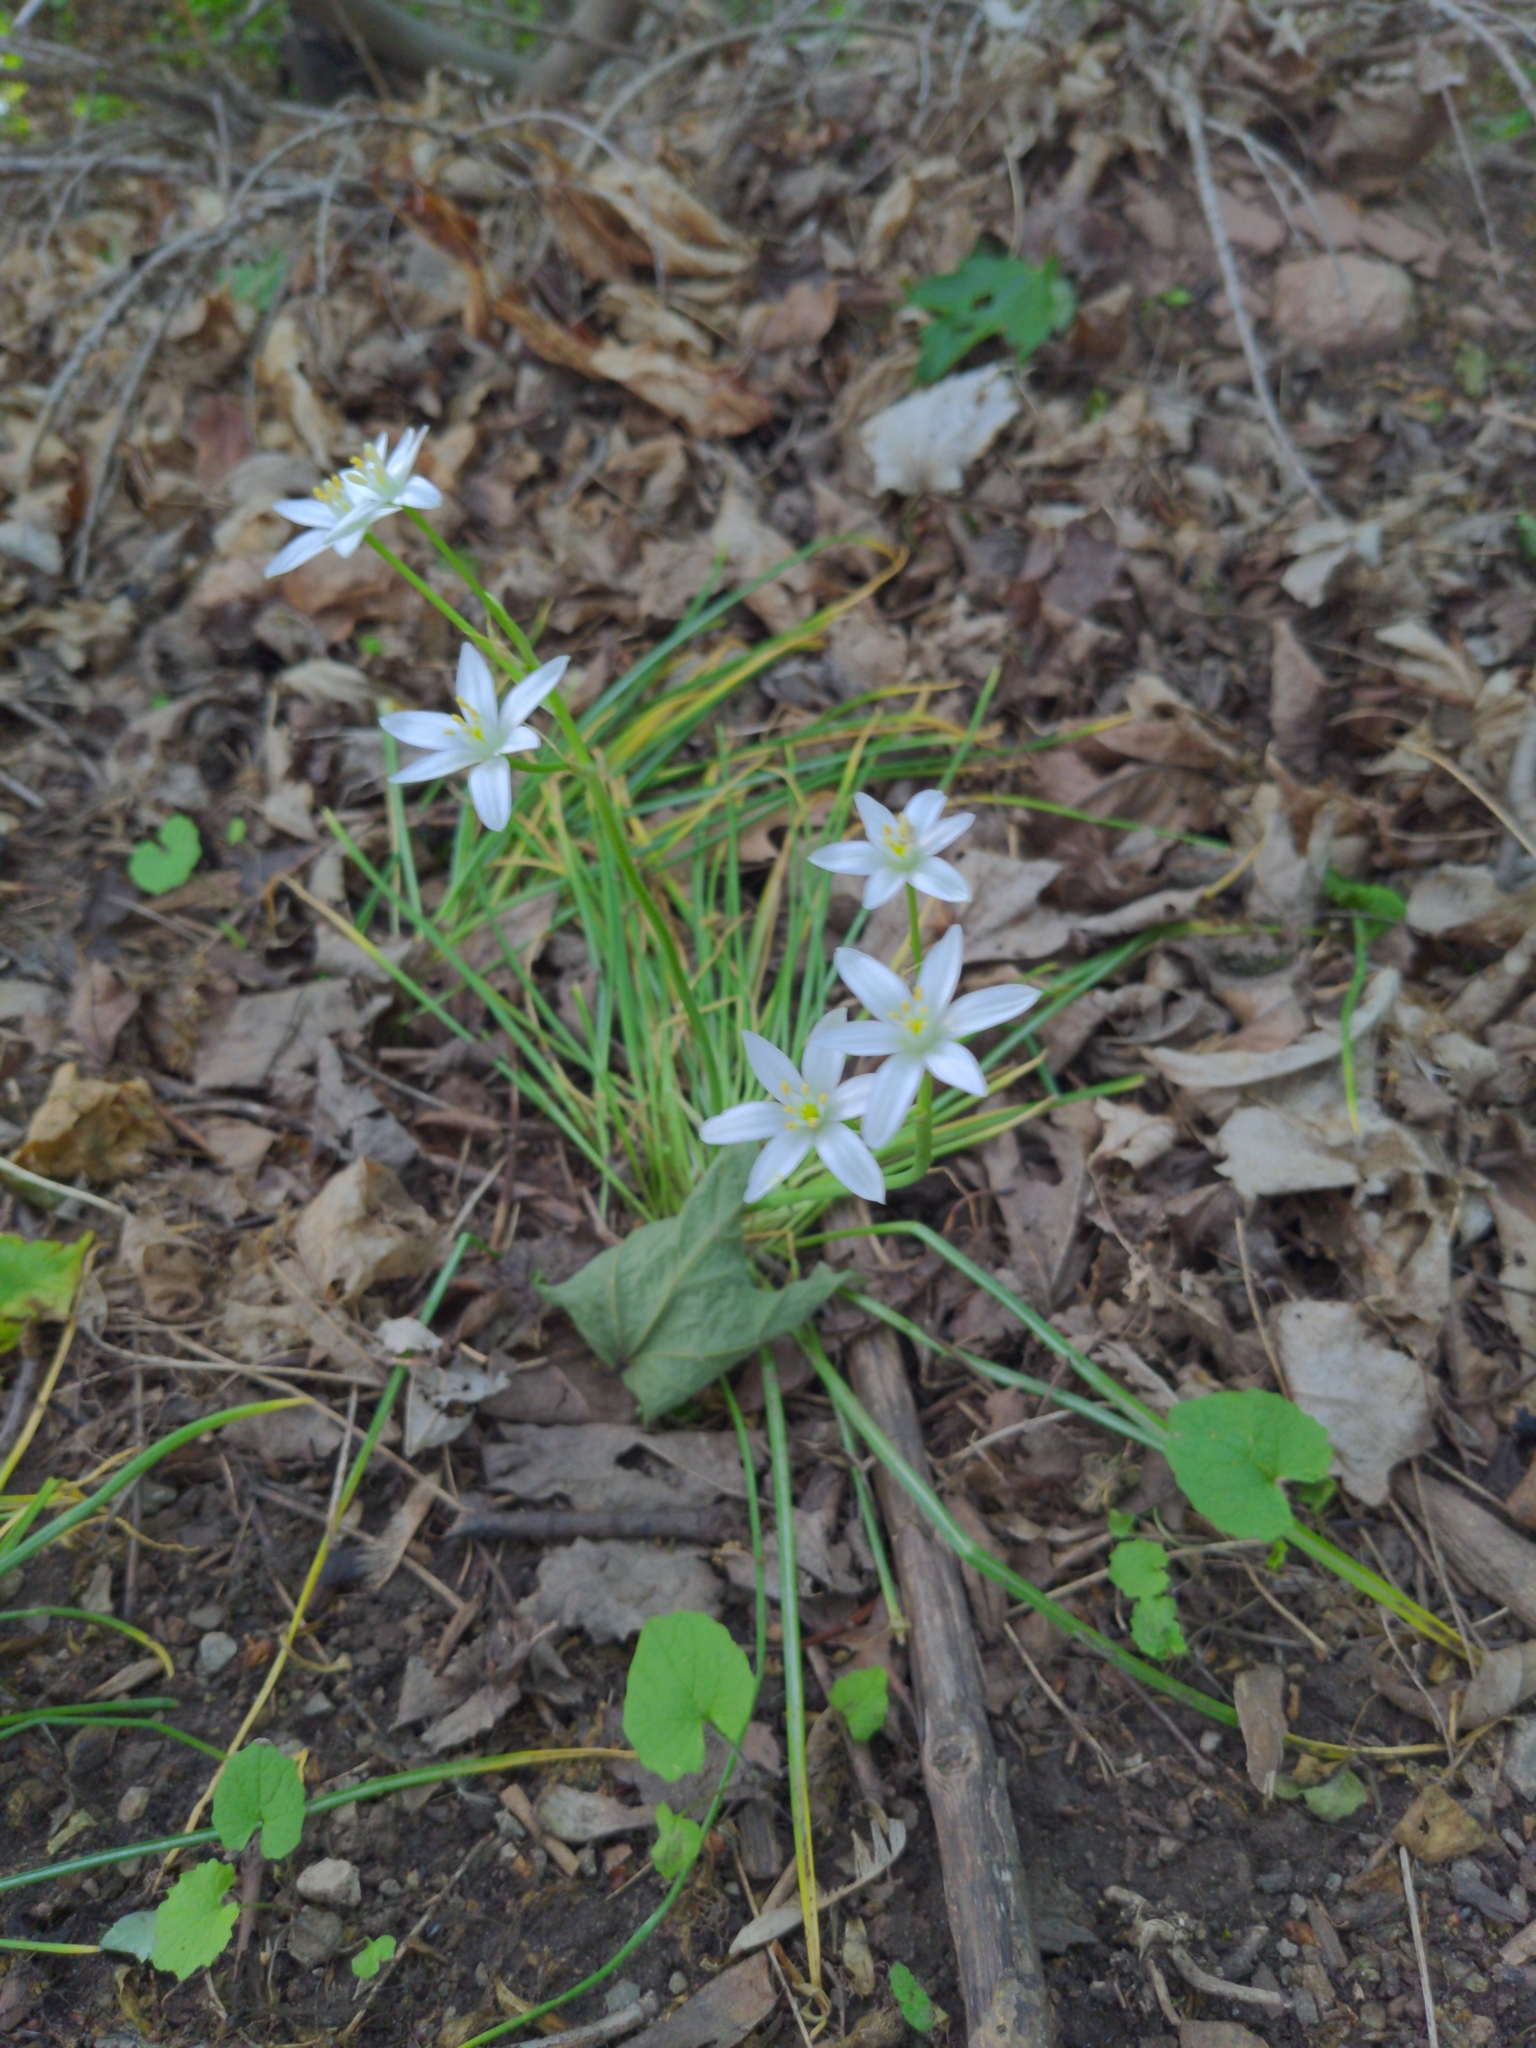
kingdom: Plantae
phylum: Tracheophyta
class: Liliopsida
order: Asparagales
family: Asparagaceae
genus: Ornithogalum
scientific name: Ornithogalum umbellatum
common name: Garden star-of-bethlehem
